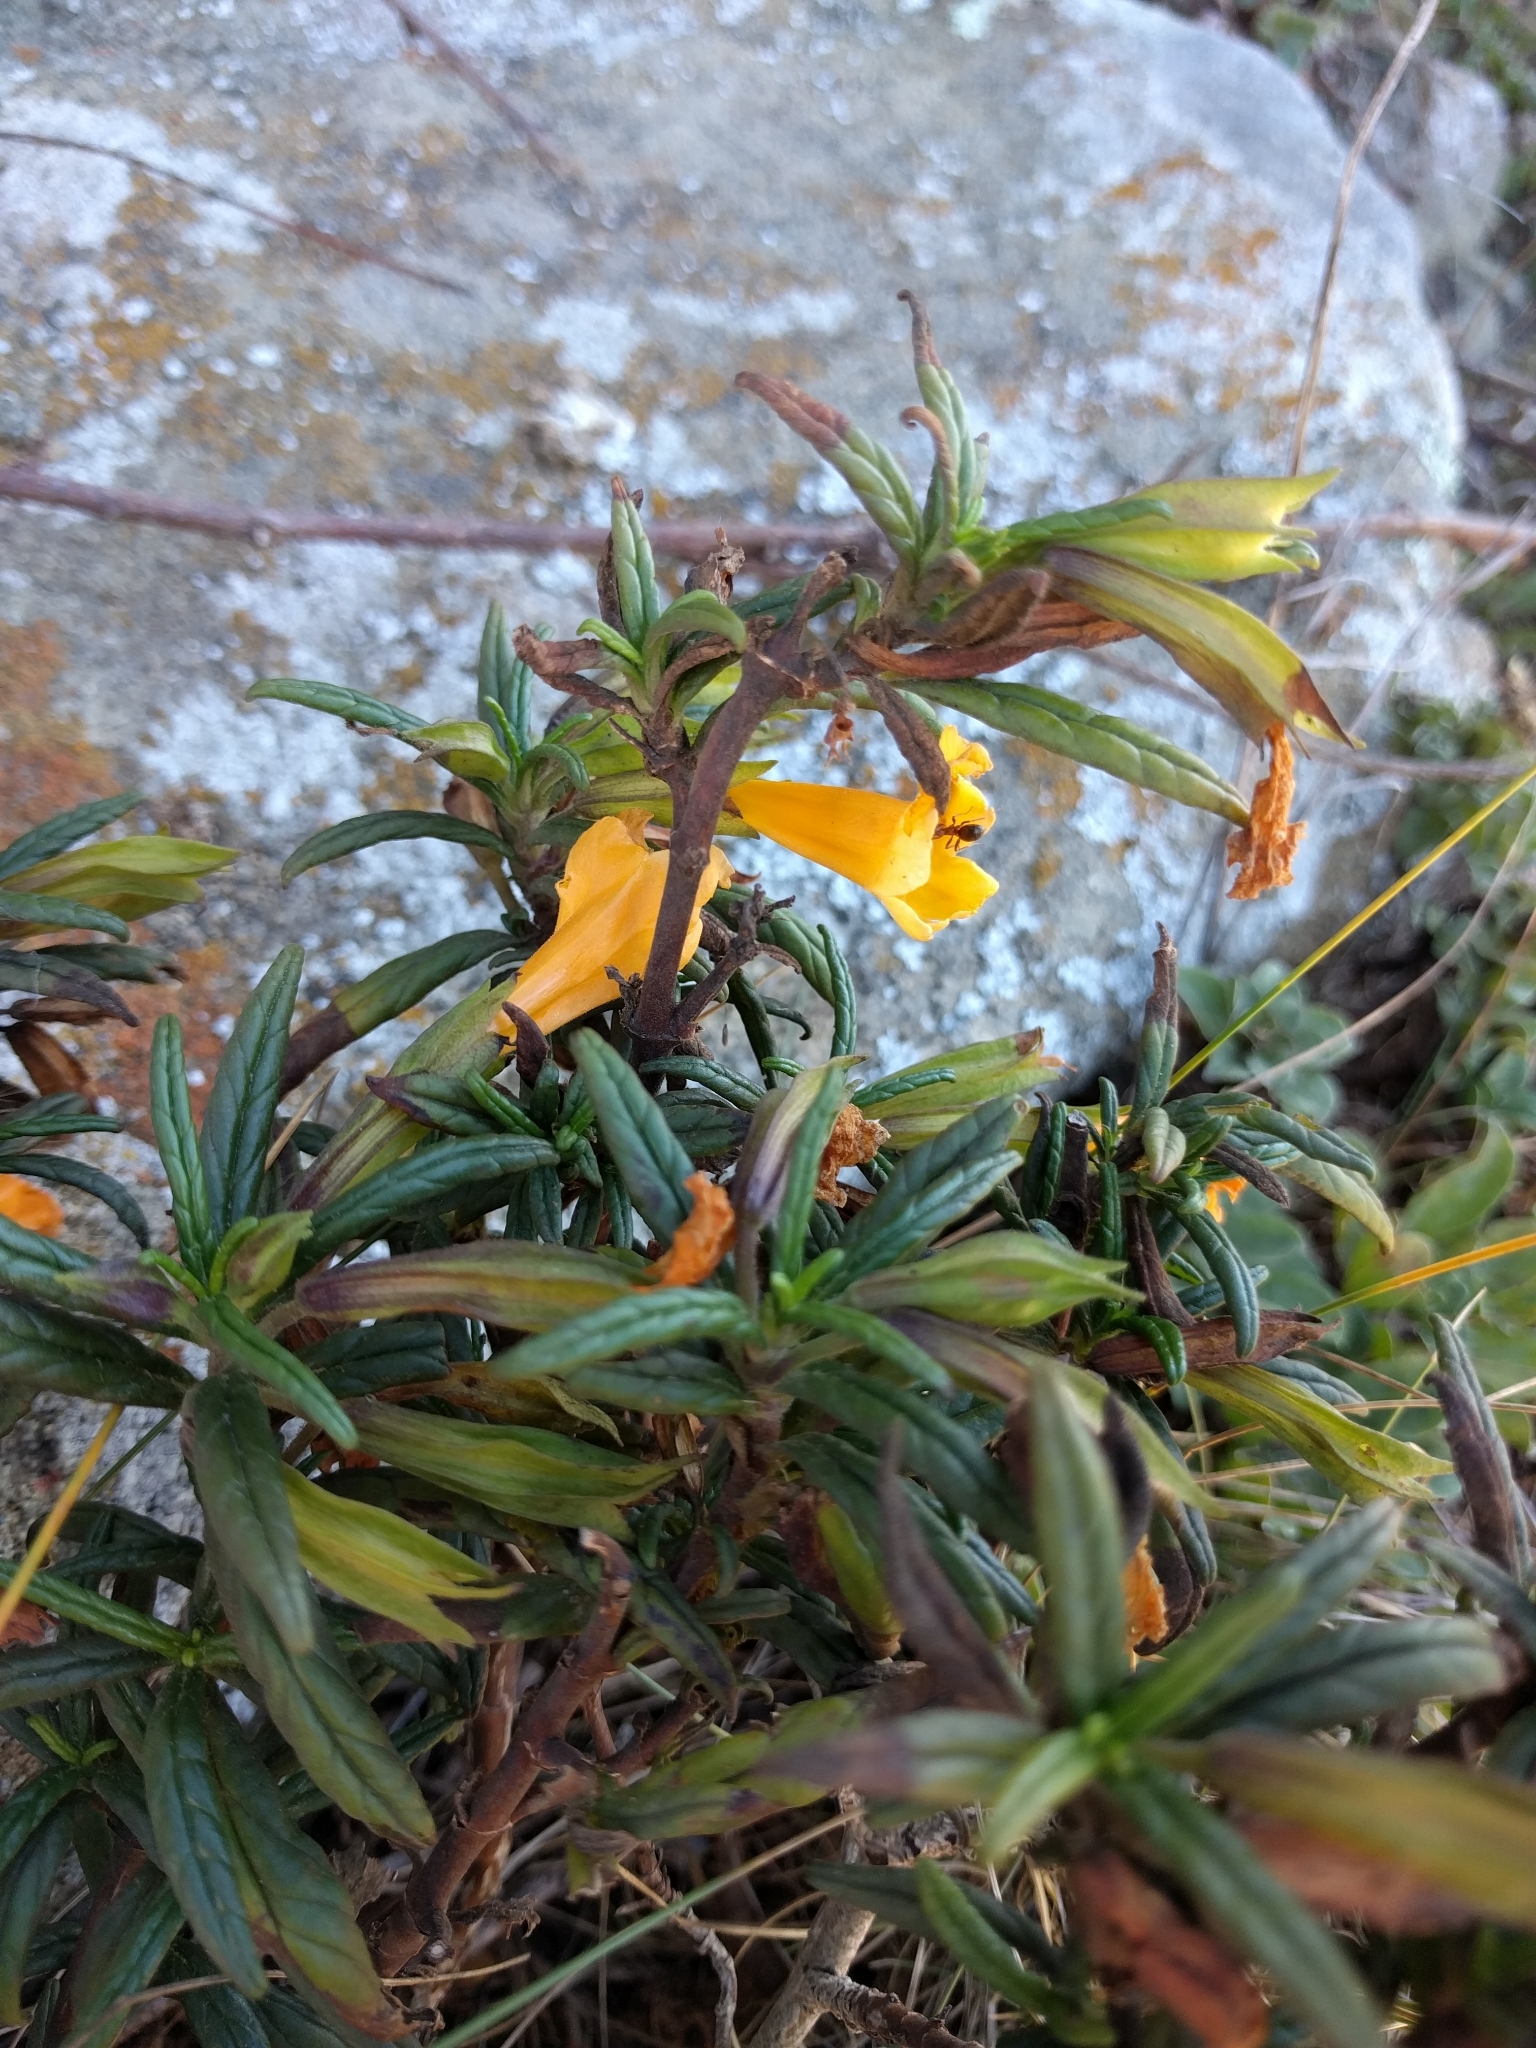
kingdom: Plantae
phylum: Tracheophyta
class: Magnoliopsida
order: Lamiales
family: Phrymaceae
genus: Diplacus
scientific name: Diplacus aurantiacus
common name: Bush monkey-flower
